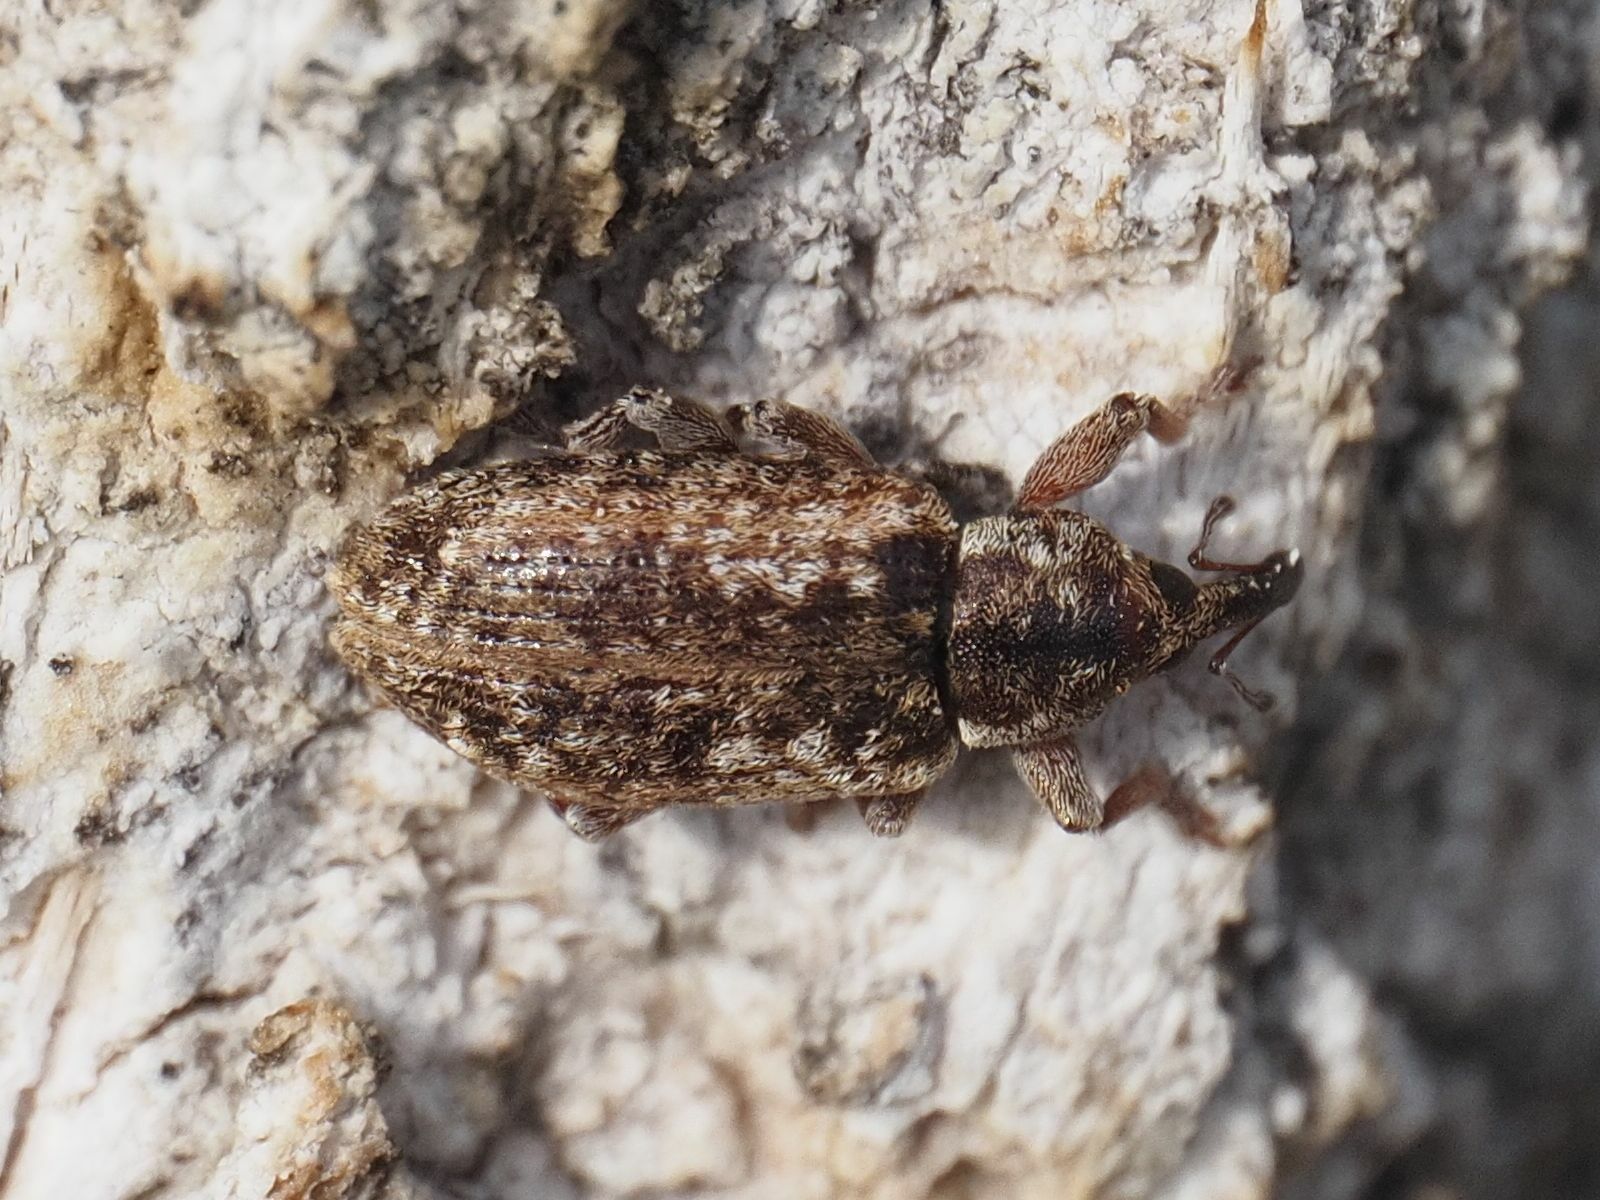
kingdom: Animalia
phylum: Arthropoda
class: Insecta
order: Coleoptera
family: Curculionidae
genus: Dorytomus
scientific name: Dorytomus ictor
